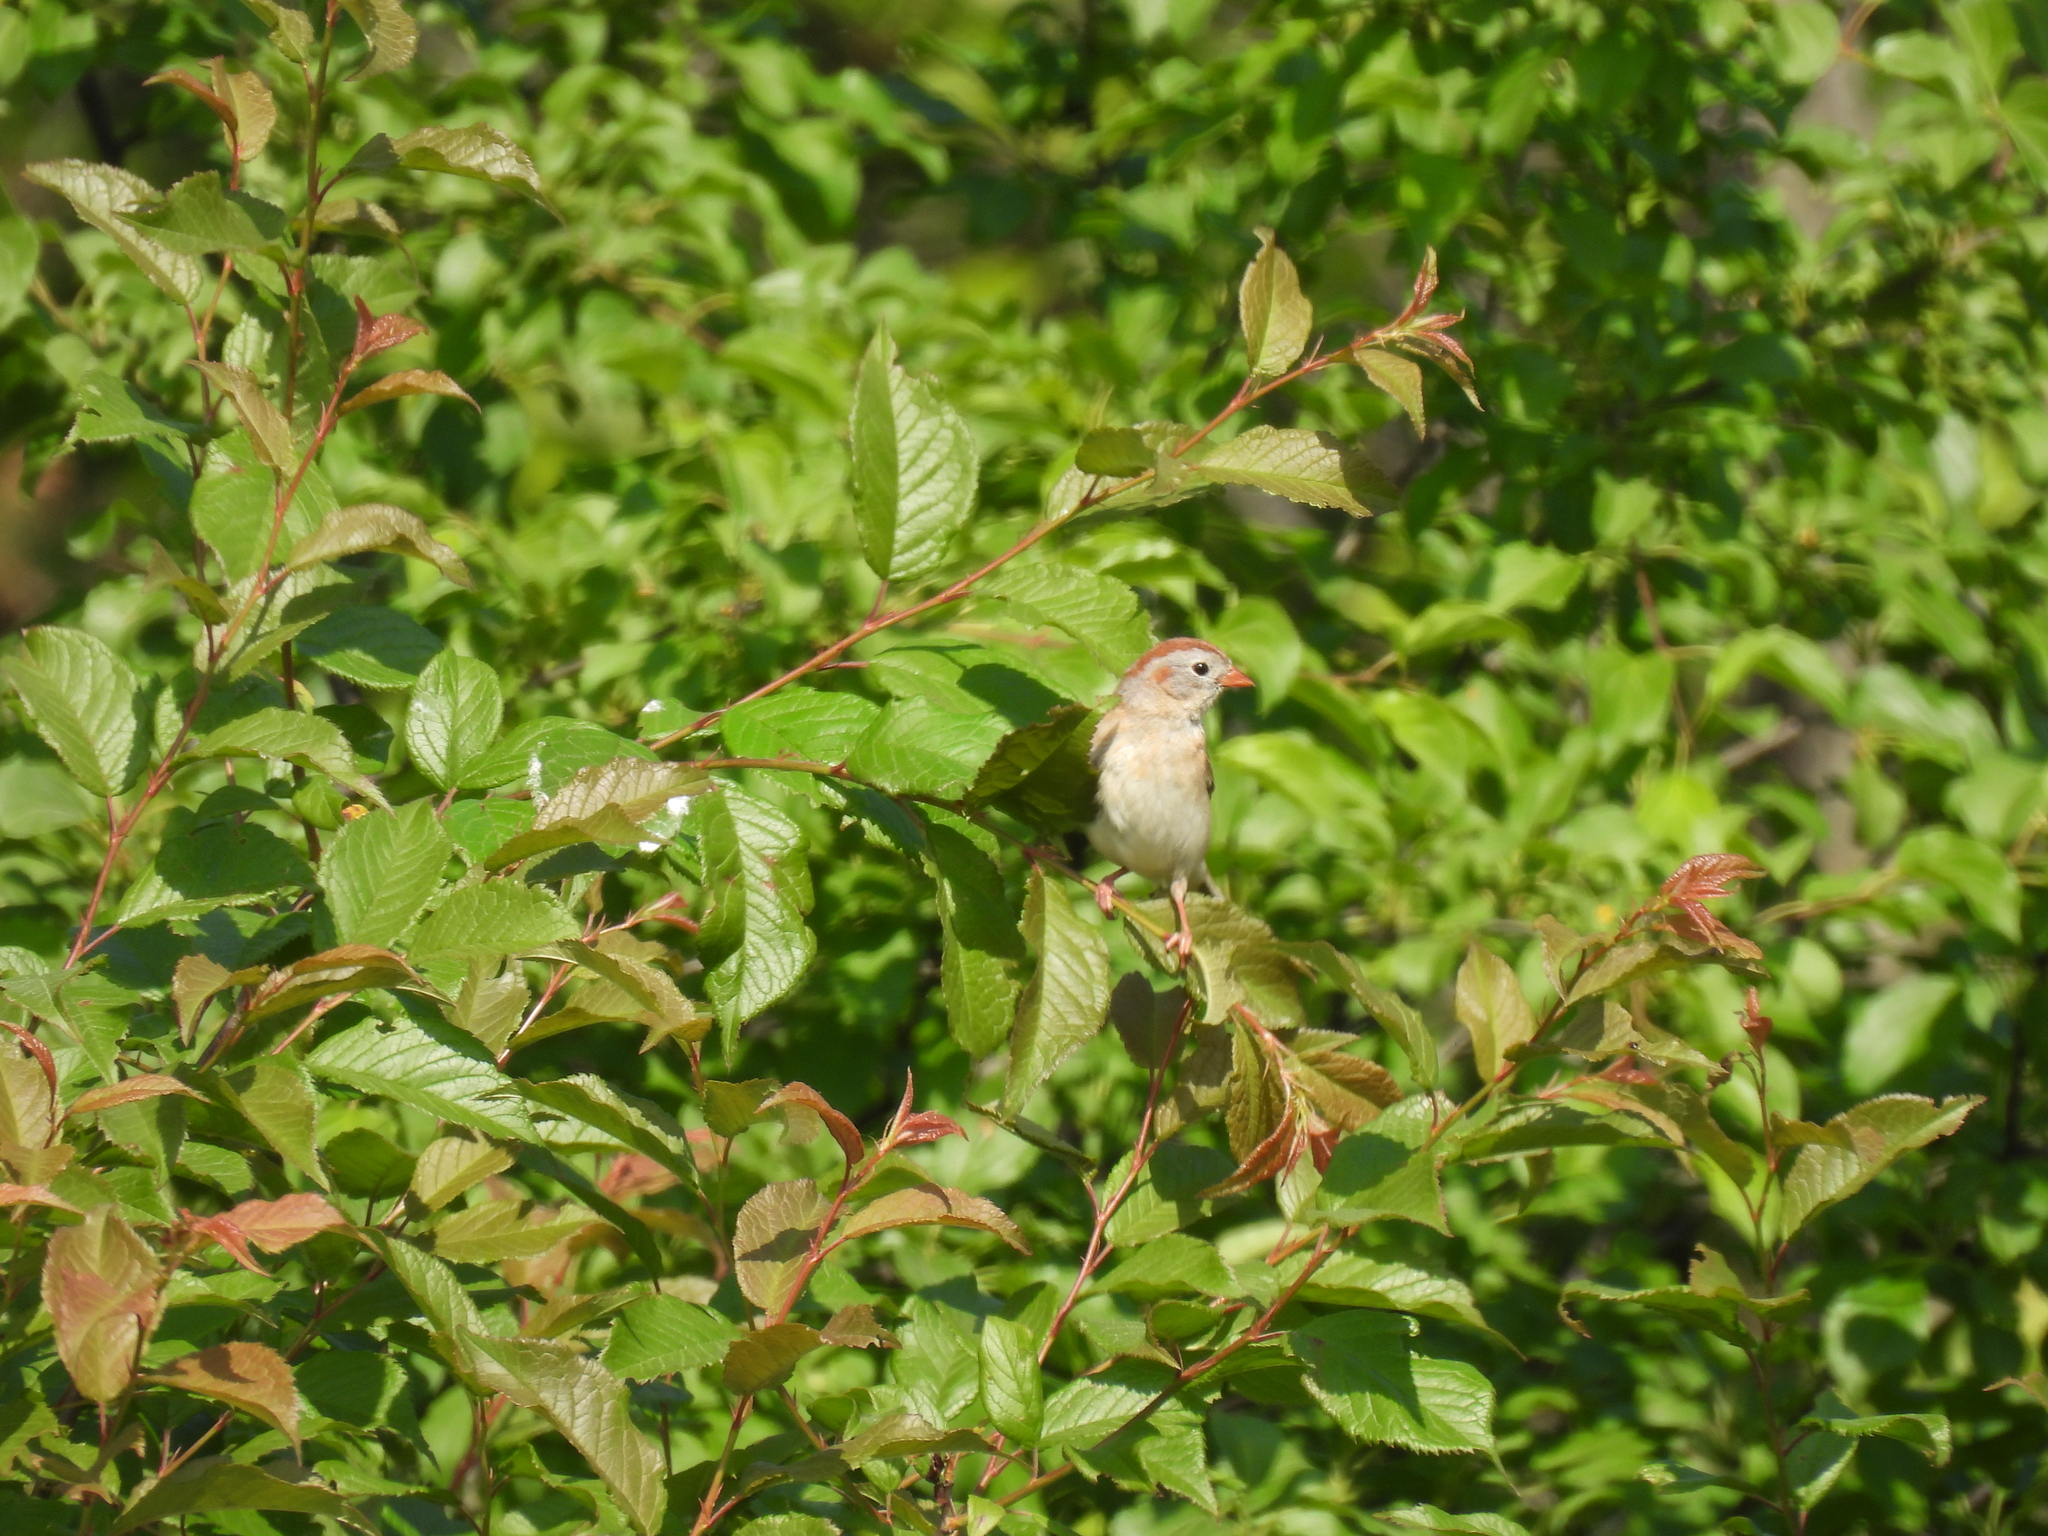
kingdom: Animalia
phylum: Chordata
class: Aves
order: Passeriformes
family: Passerellidae
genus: Spizella
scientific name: Spizella pusilla
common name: Field sparrow
